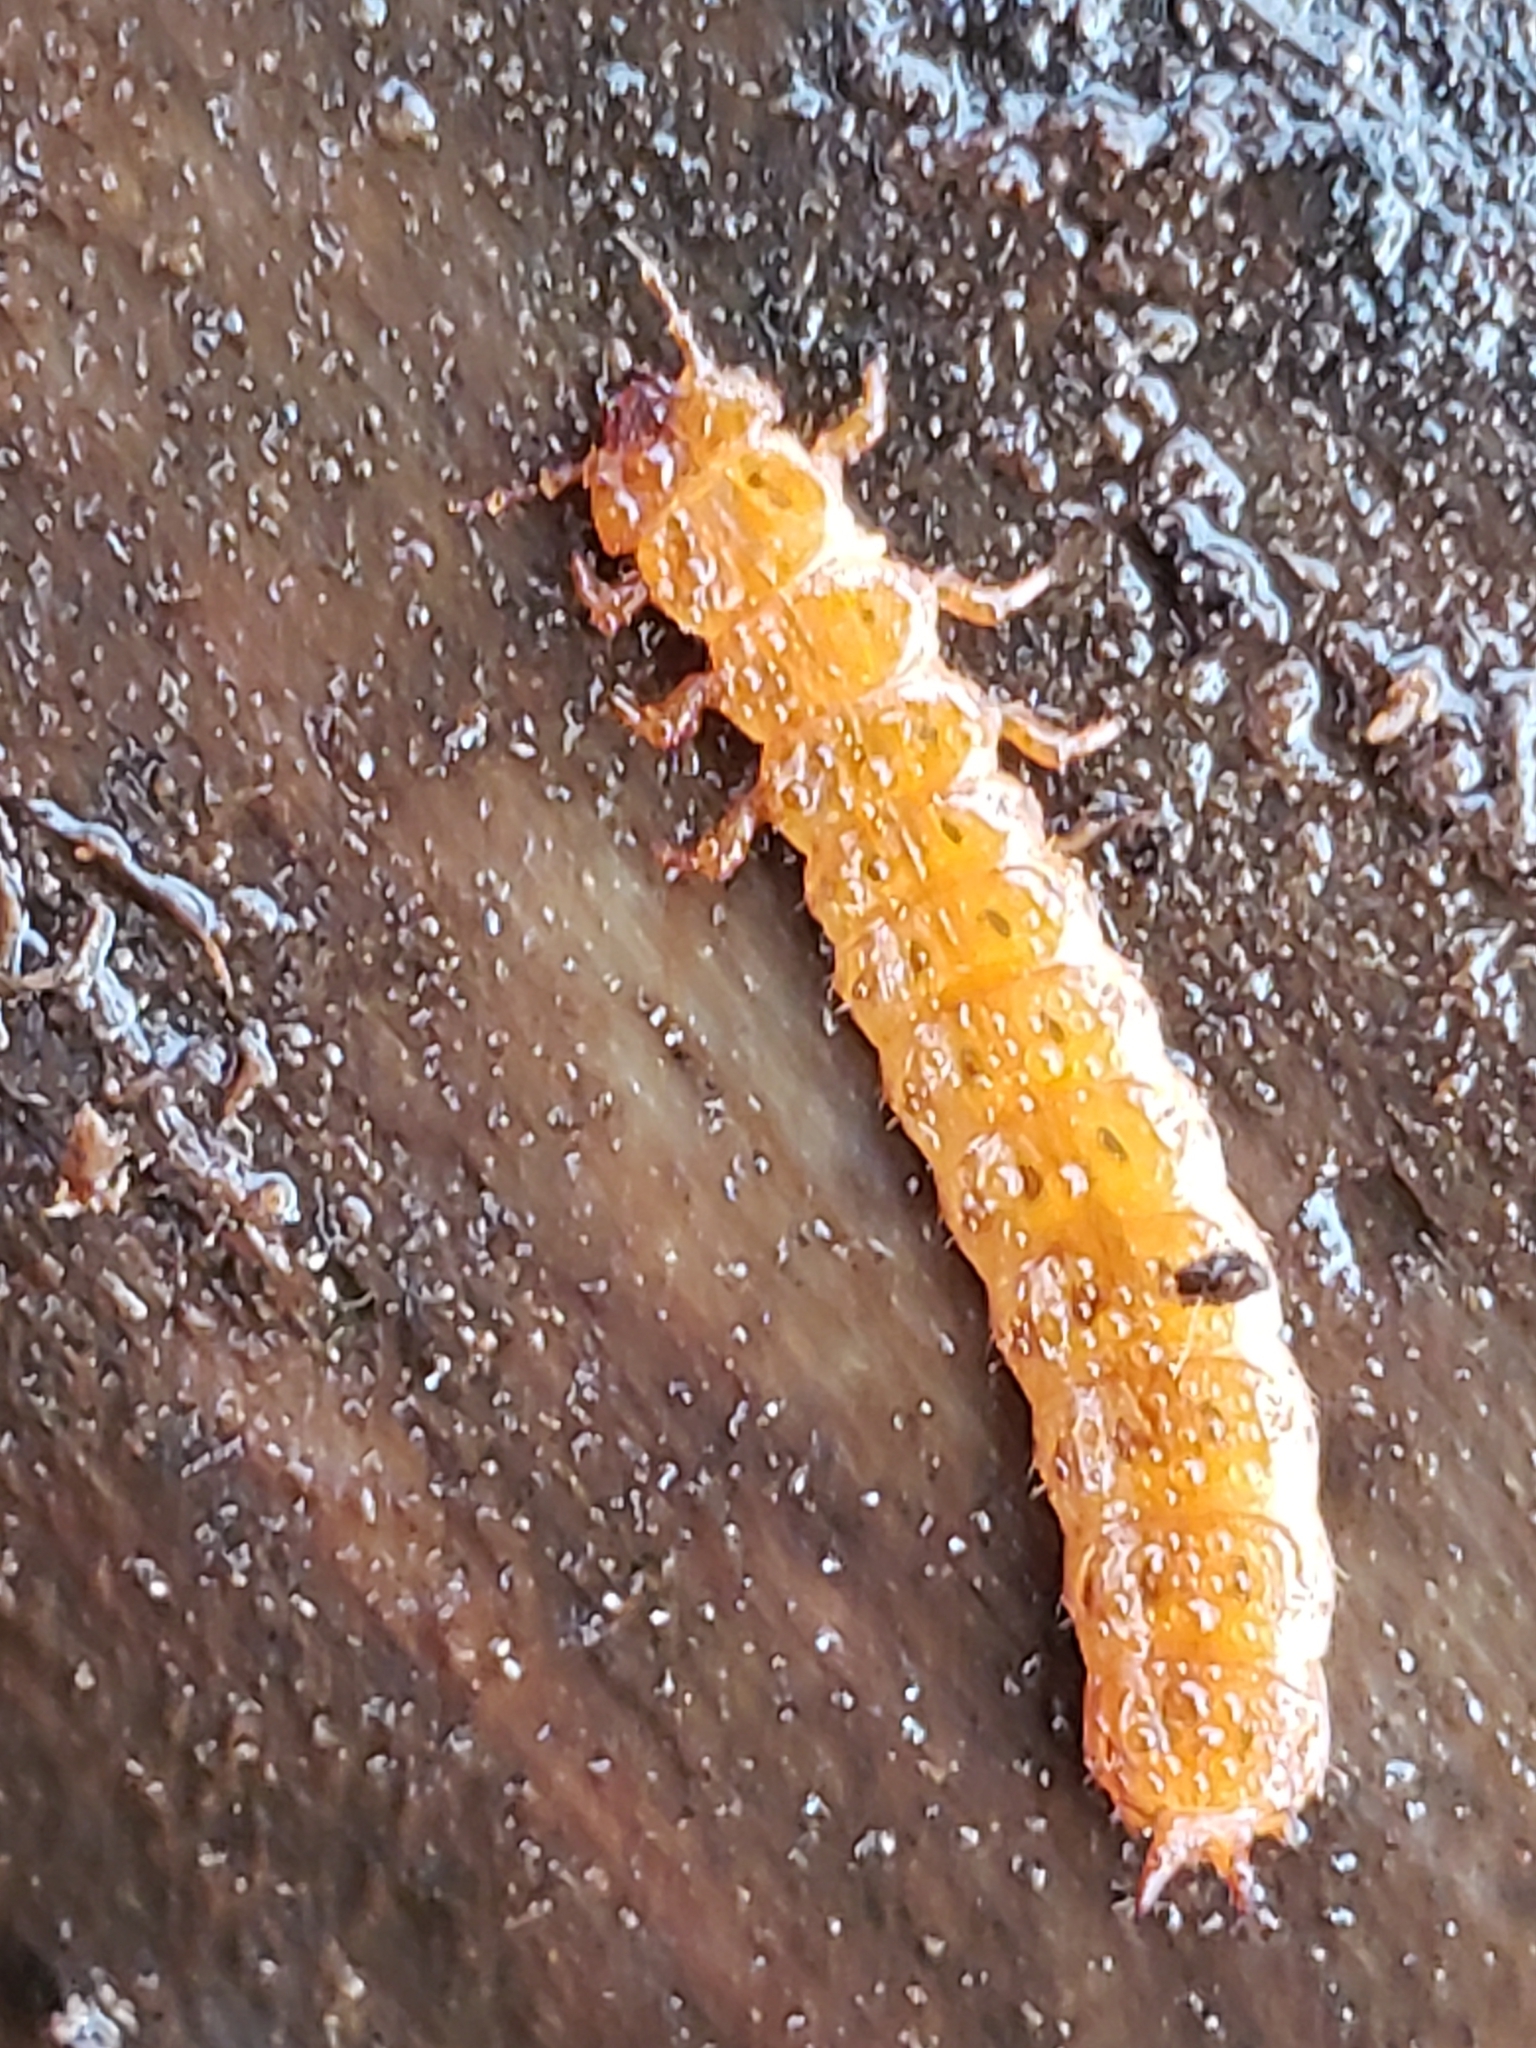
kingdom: Animalia
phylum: Arthropoda
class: Insecta
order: Coleoptera
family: Cucujidae
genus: Cucujus
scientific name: Cucujus clavipes
